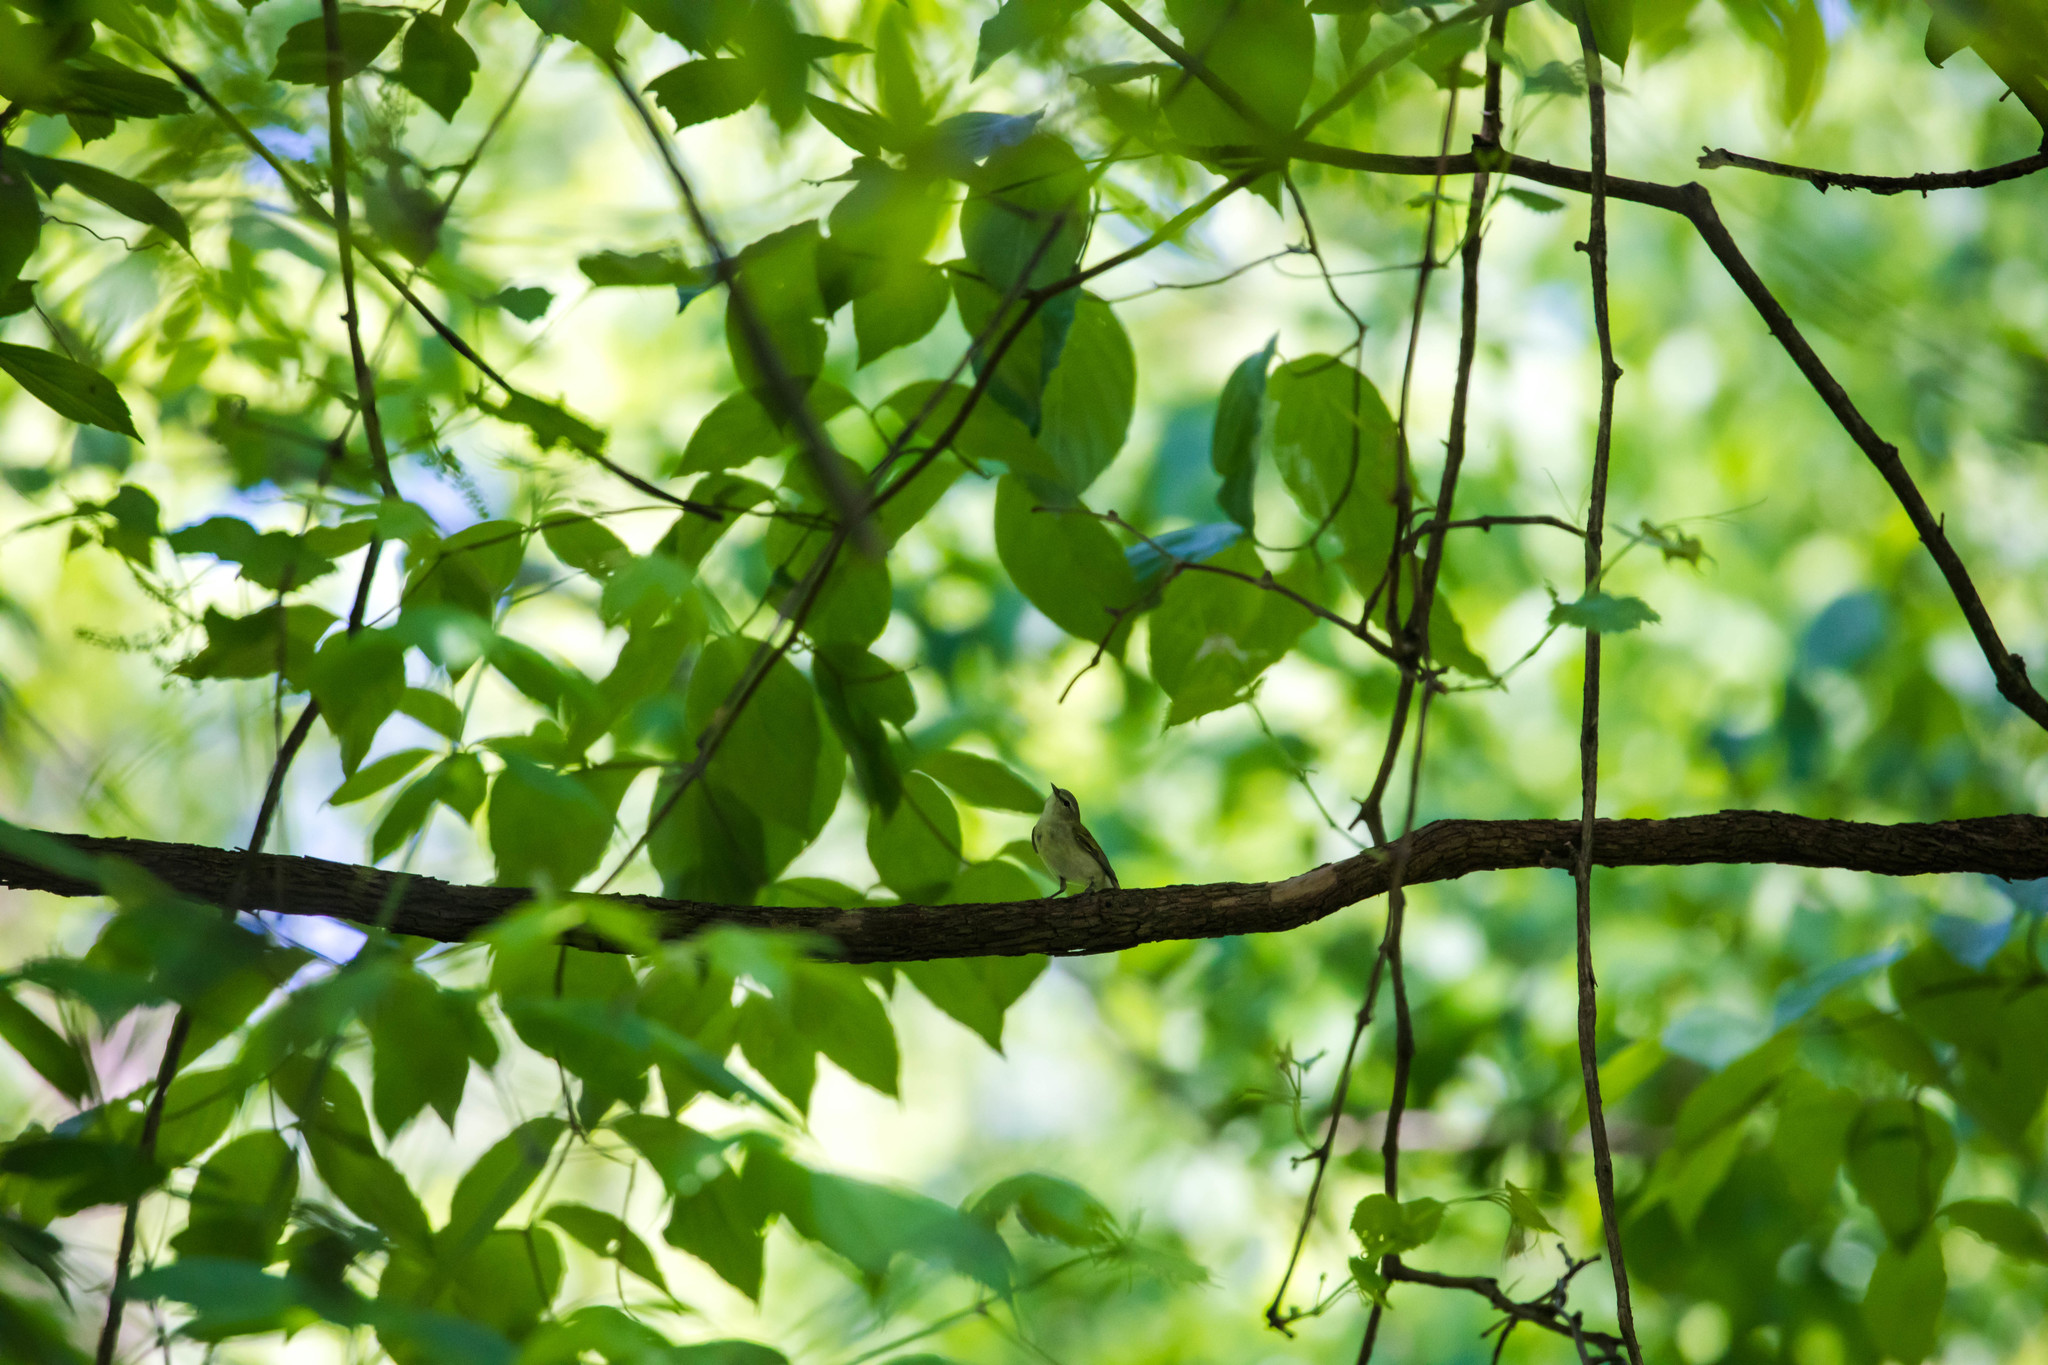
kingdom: Animalia
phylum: Chordata
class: Aves
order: Passeriformes
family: Parulidae
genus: Leiothlypis
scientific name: Leiothlypis peregrina
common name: Tennessee warbler
